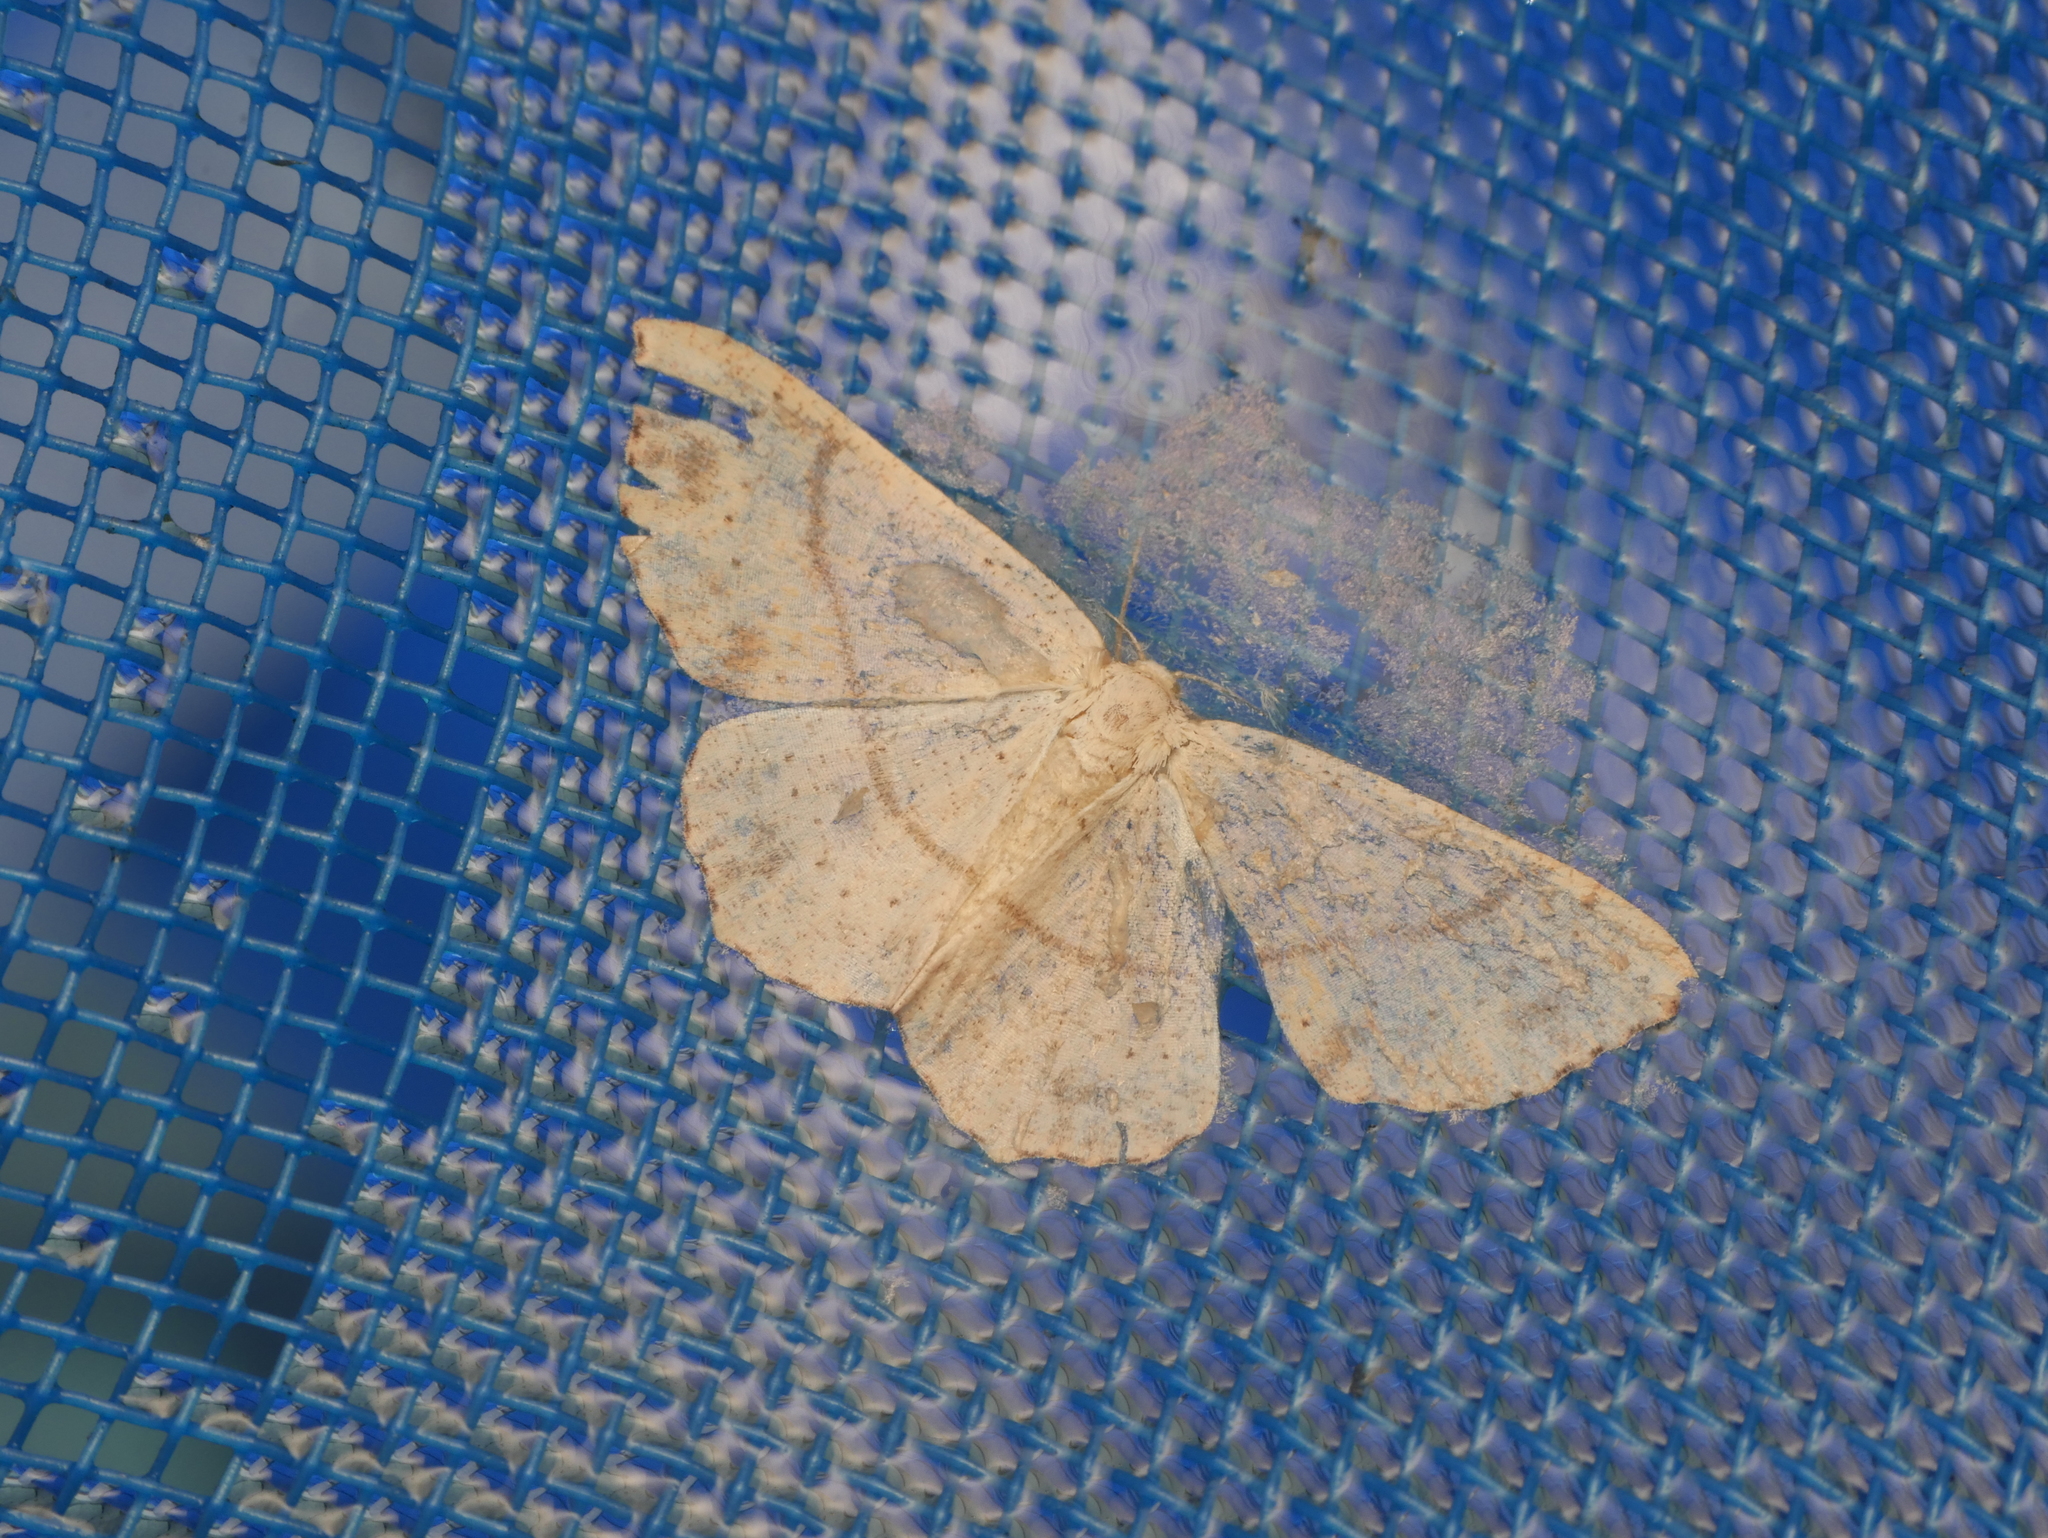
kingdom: Animalia
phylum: Arthropoda
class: Insecta
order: Lepidoptera
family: Geometridae
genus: Cyclophora
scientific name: Cyclophora punctaria
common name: Maiden's blush
